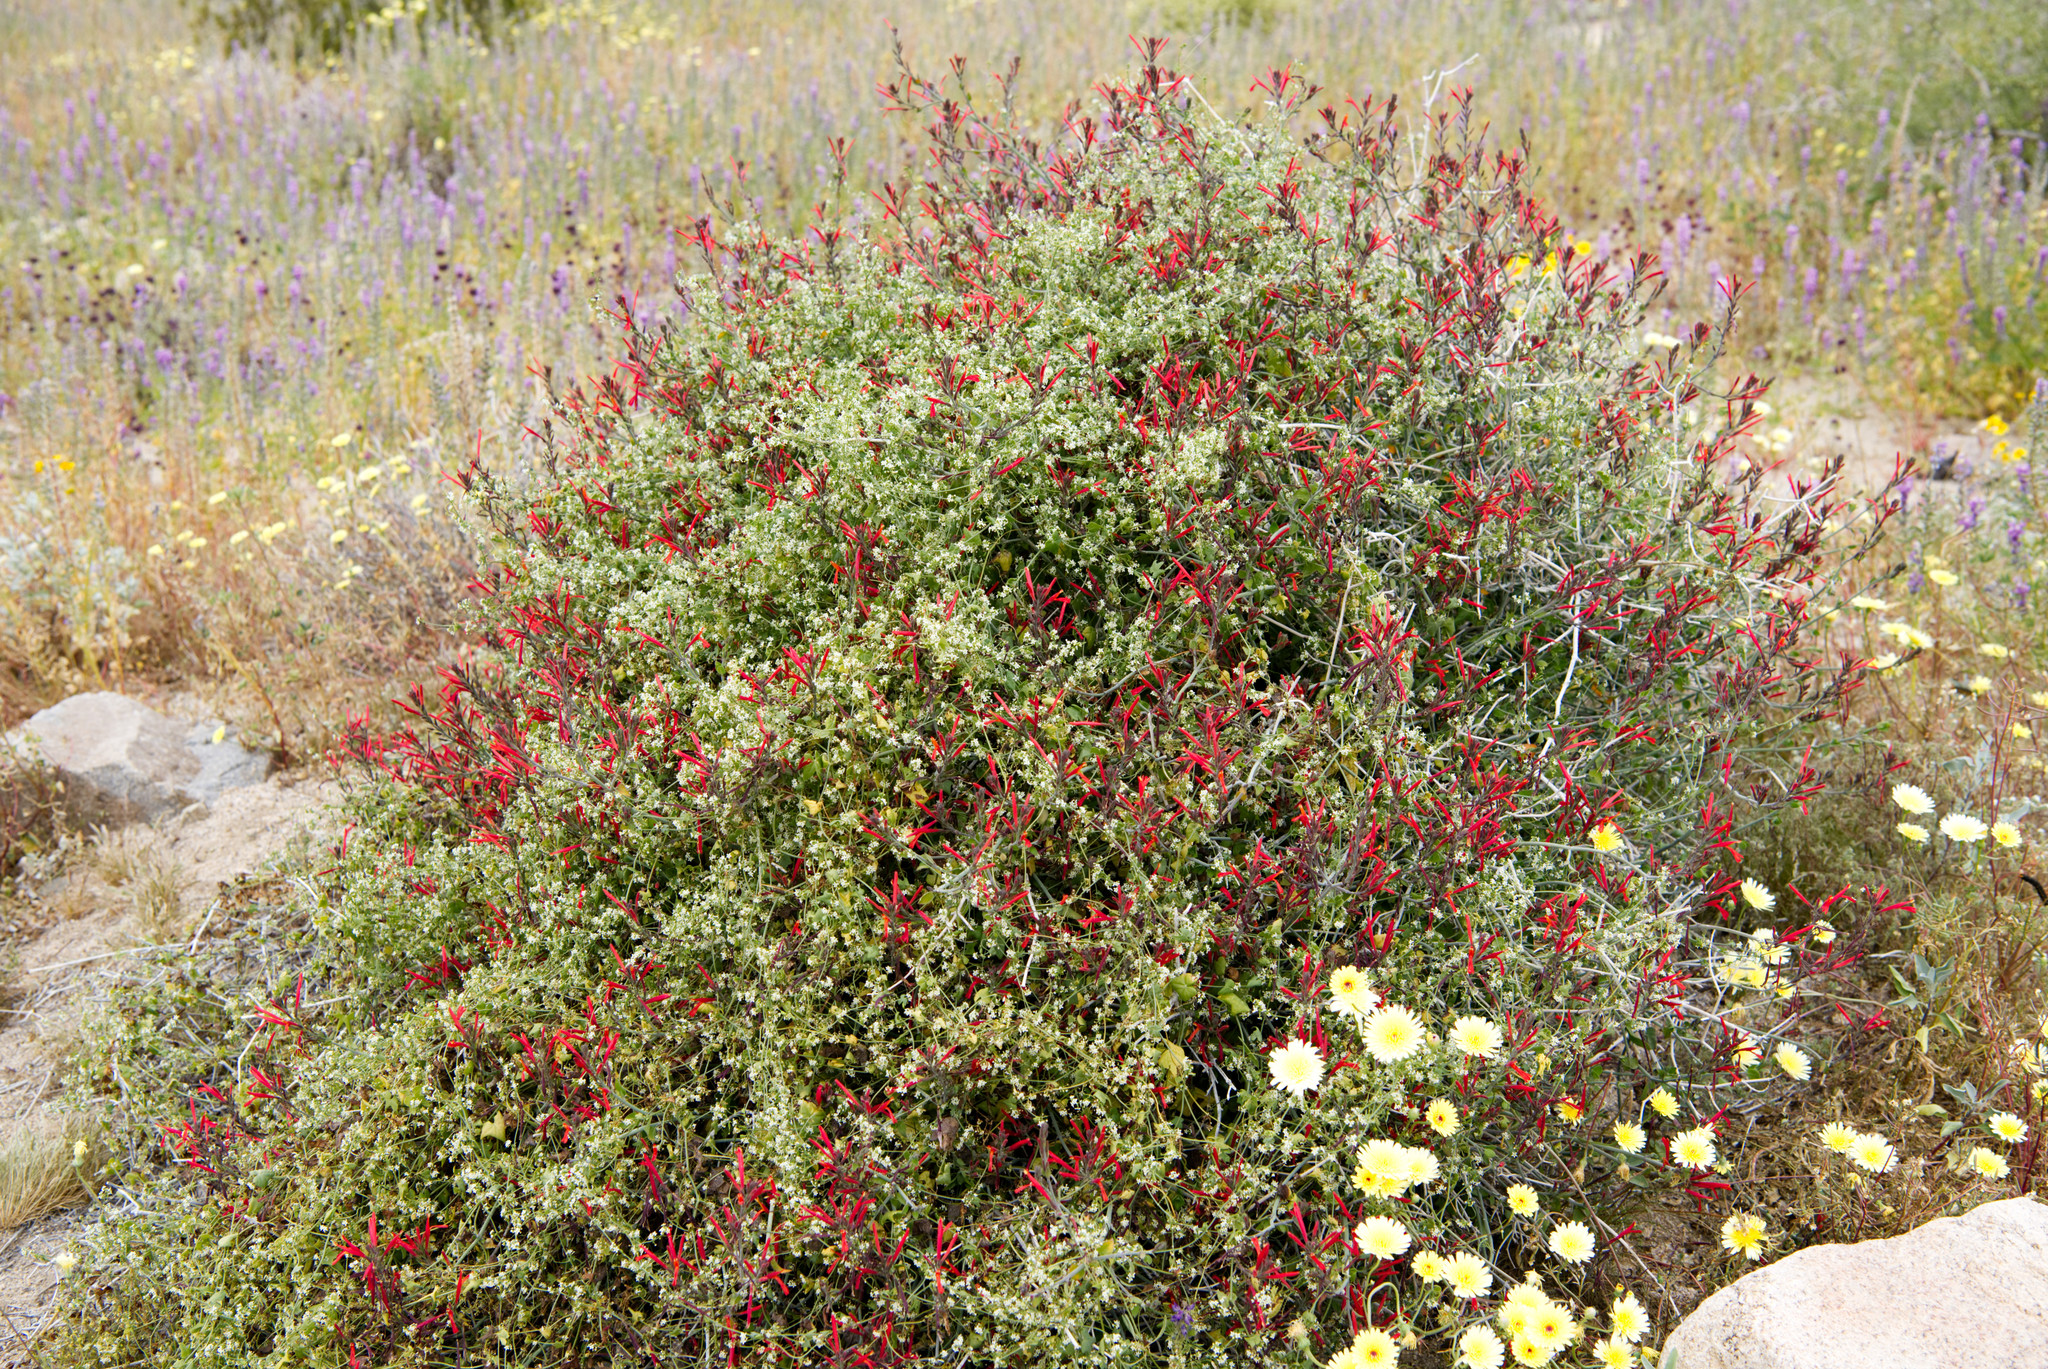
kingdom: Plantae
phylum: Tracheophyta
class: Magnoliopsida
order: Lamiales
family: Acanthaceae
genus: Justicia
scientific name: Justicia californica
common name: Chuparosa-honeysuckle
